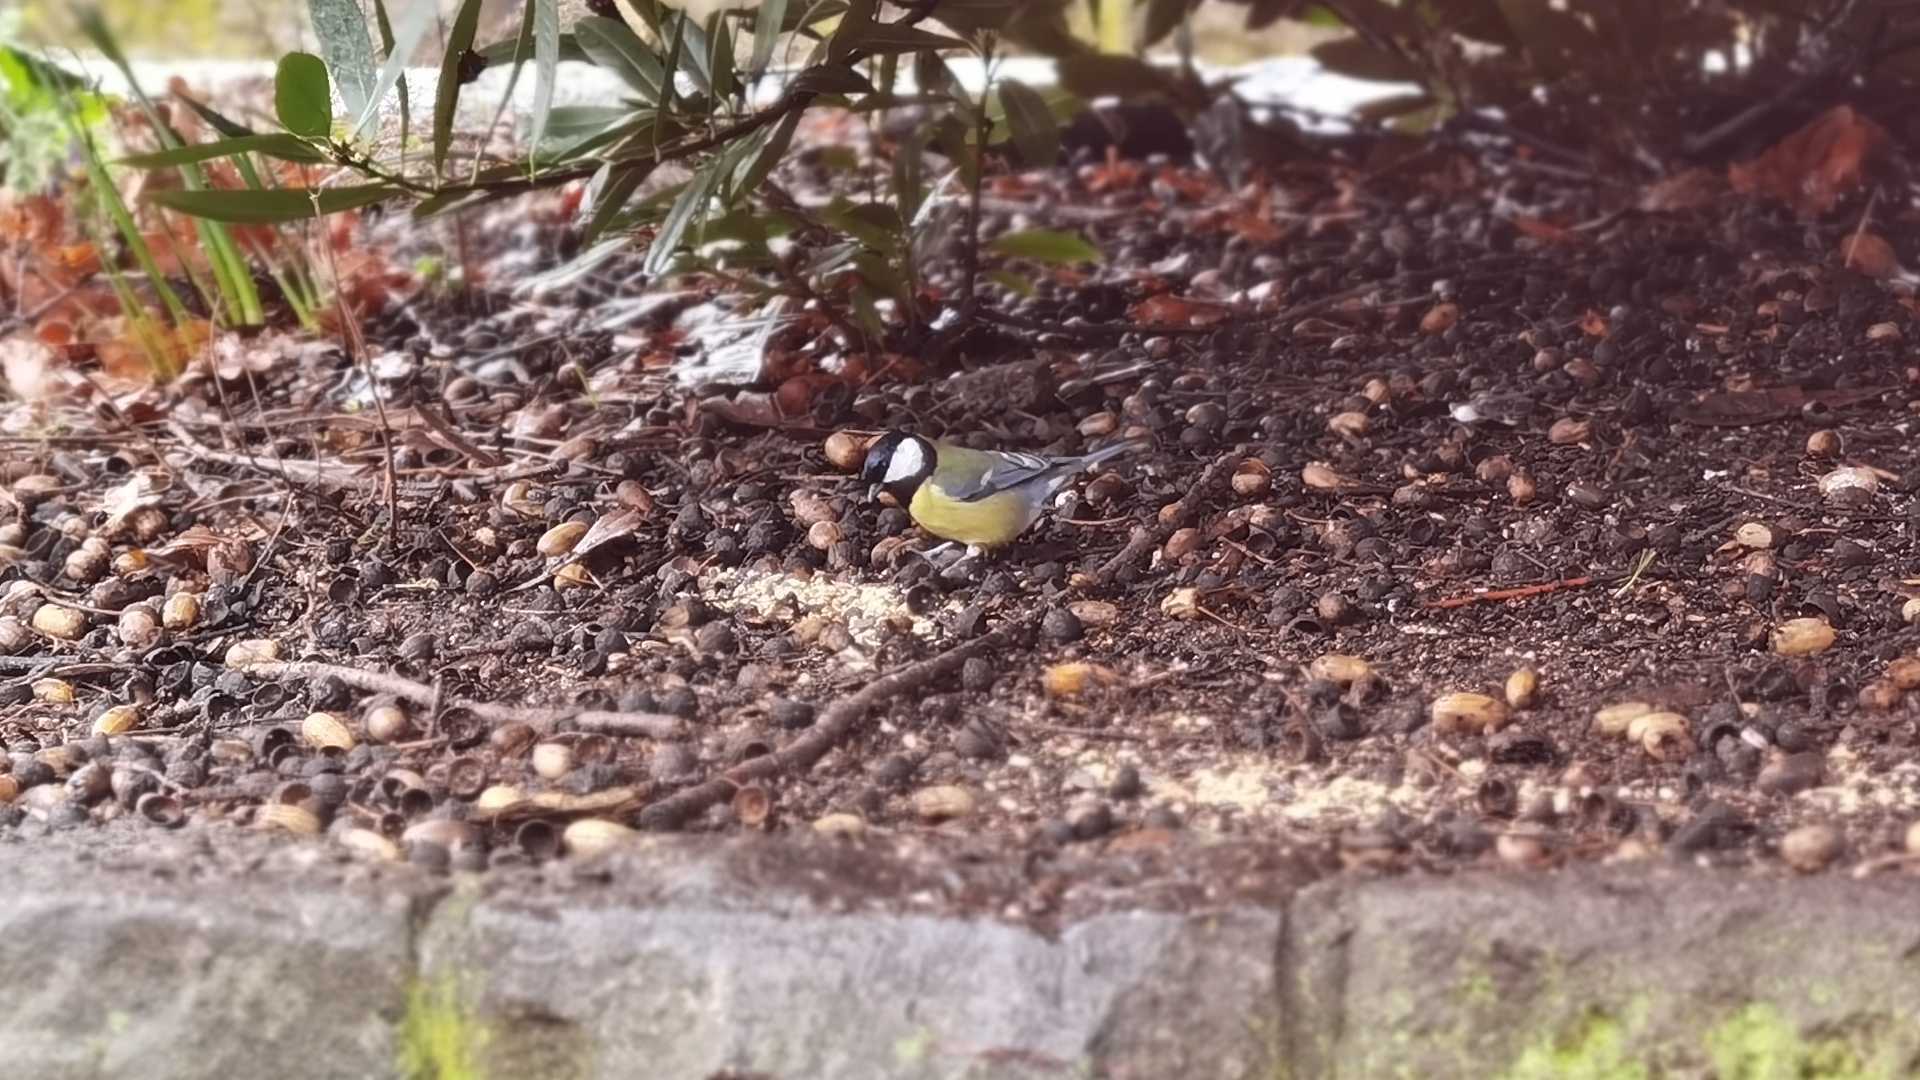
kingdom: Animalia
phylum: Chordata
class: Aves
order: Passeriformes
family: Paridae
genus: Parus
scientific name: Parus major
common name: Great tit
